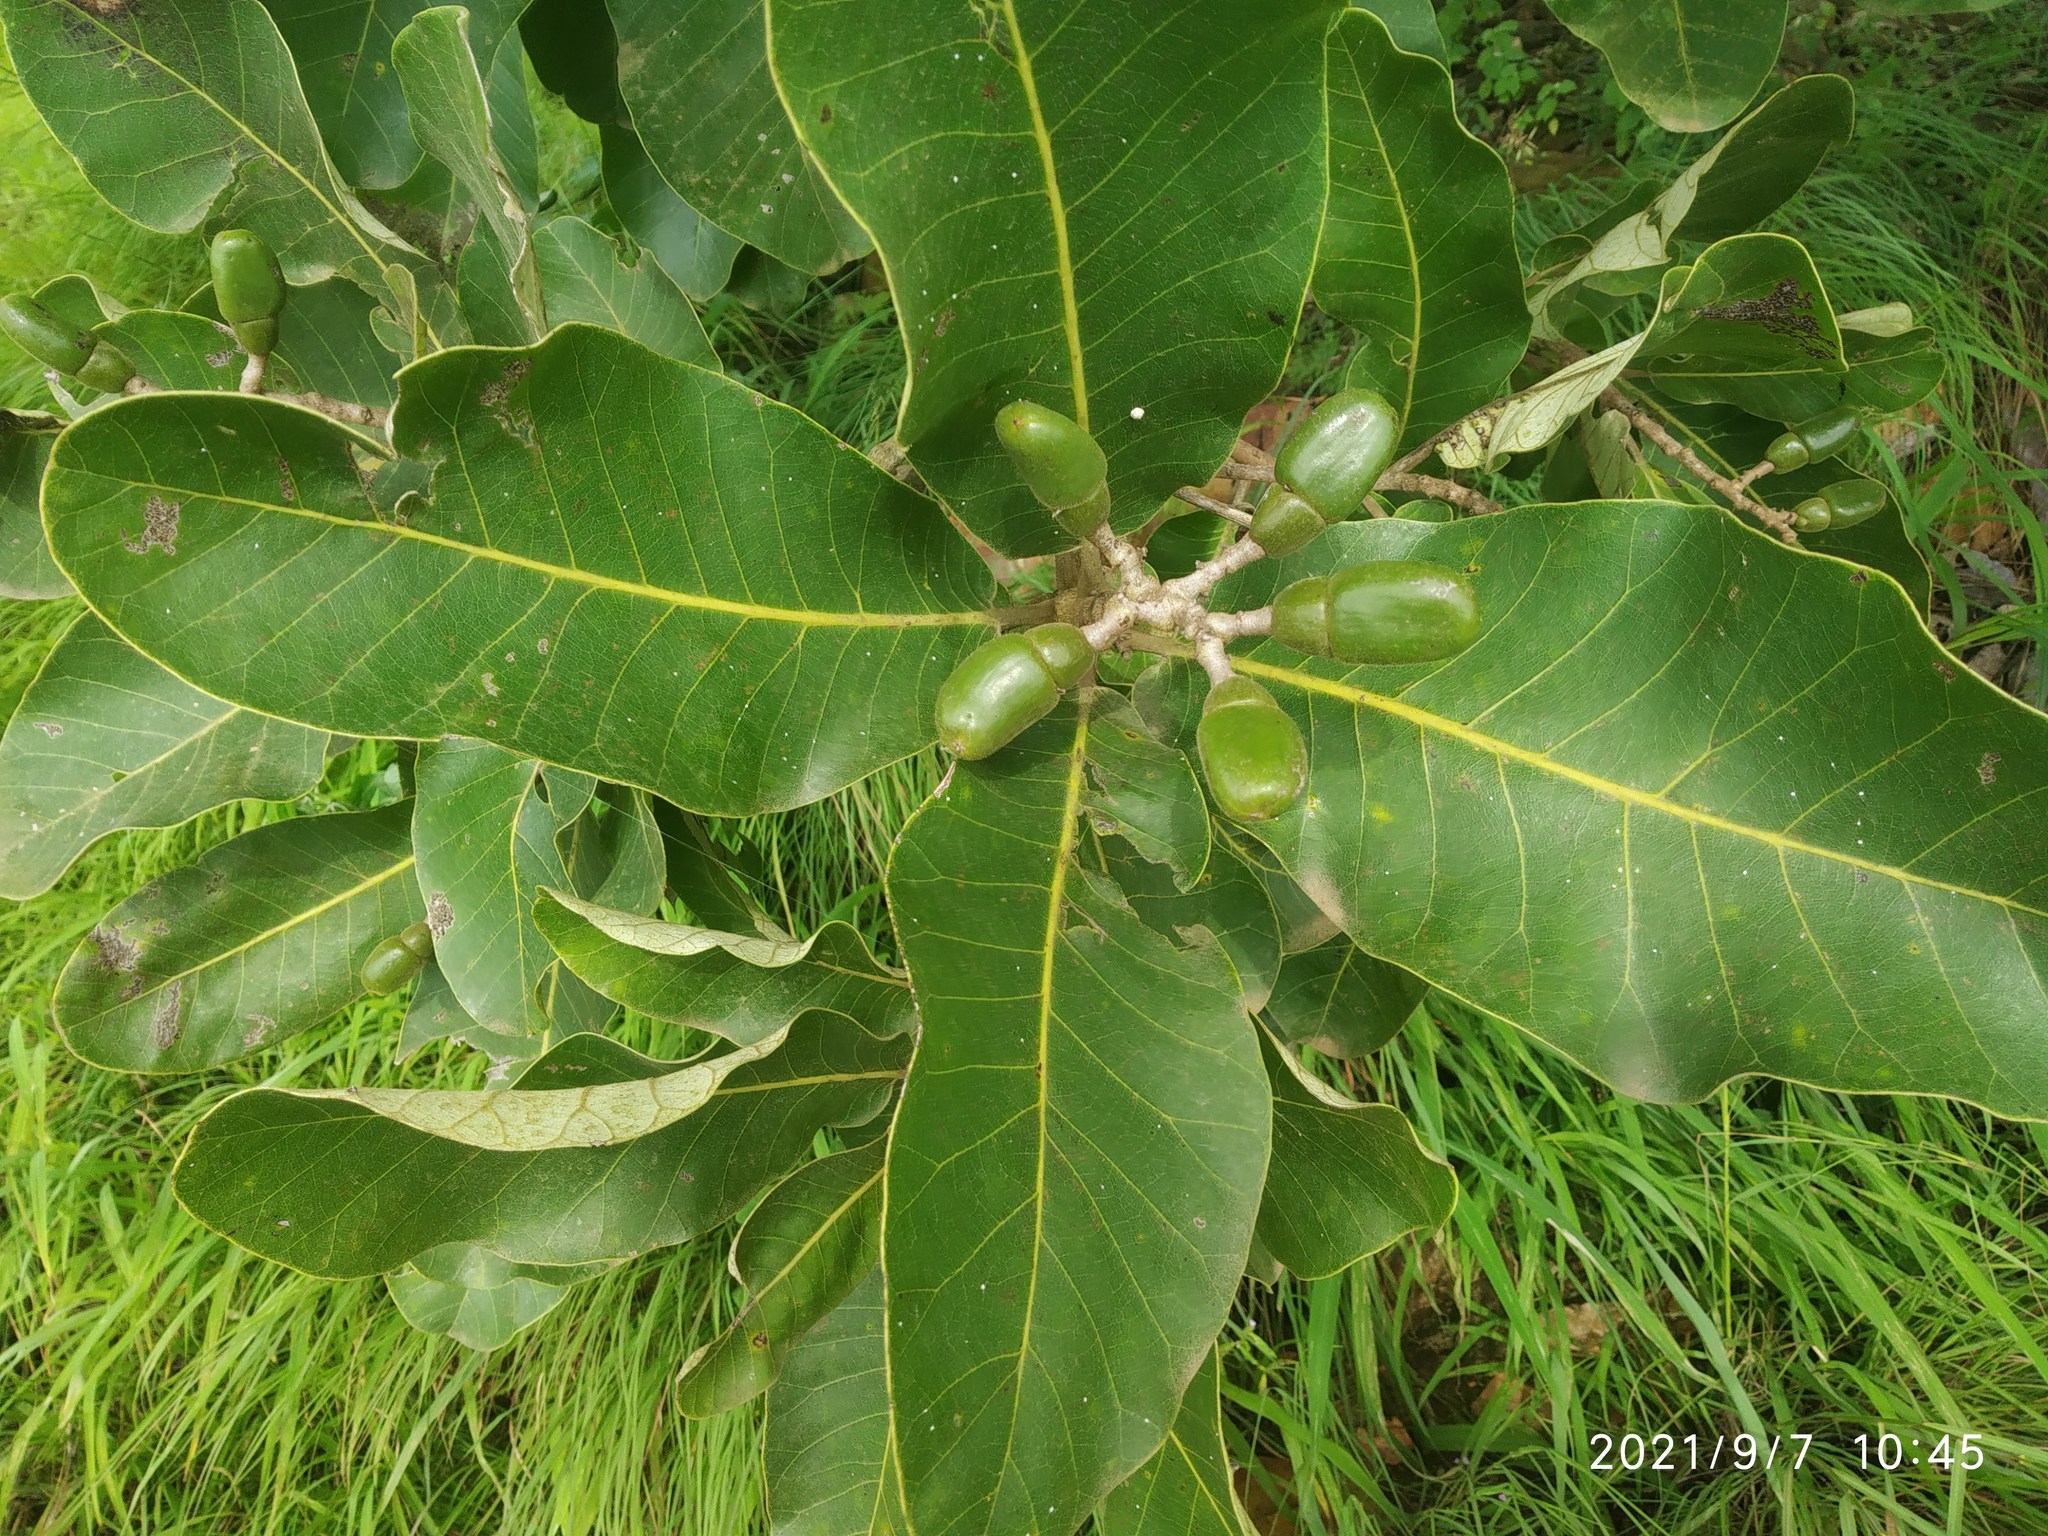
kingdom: Plantae
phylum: Tracheophyta
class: Magnoliopsida
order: Sapindales
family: Anacardiaceae
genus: Semecarpus
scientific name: Semecarpus anacardium
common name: Marking nut-tree
